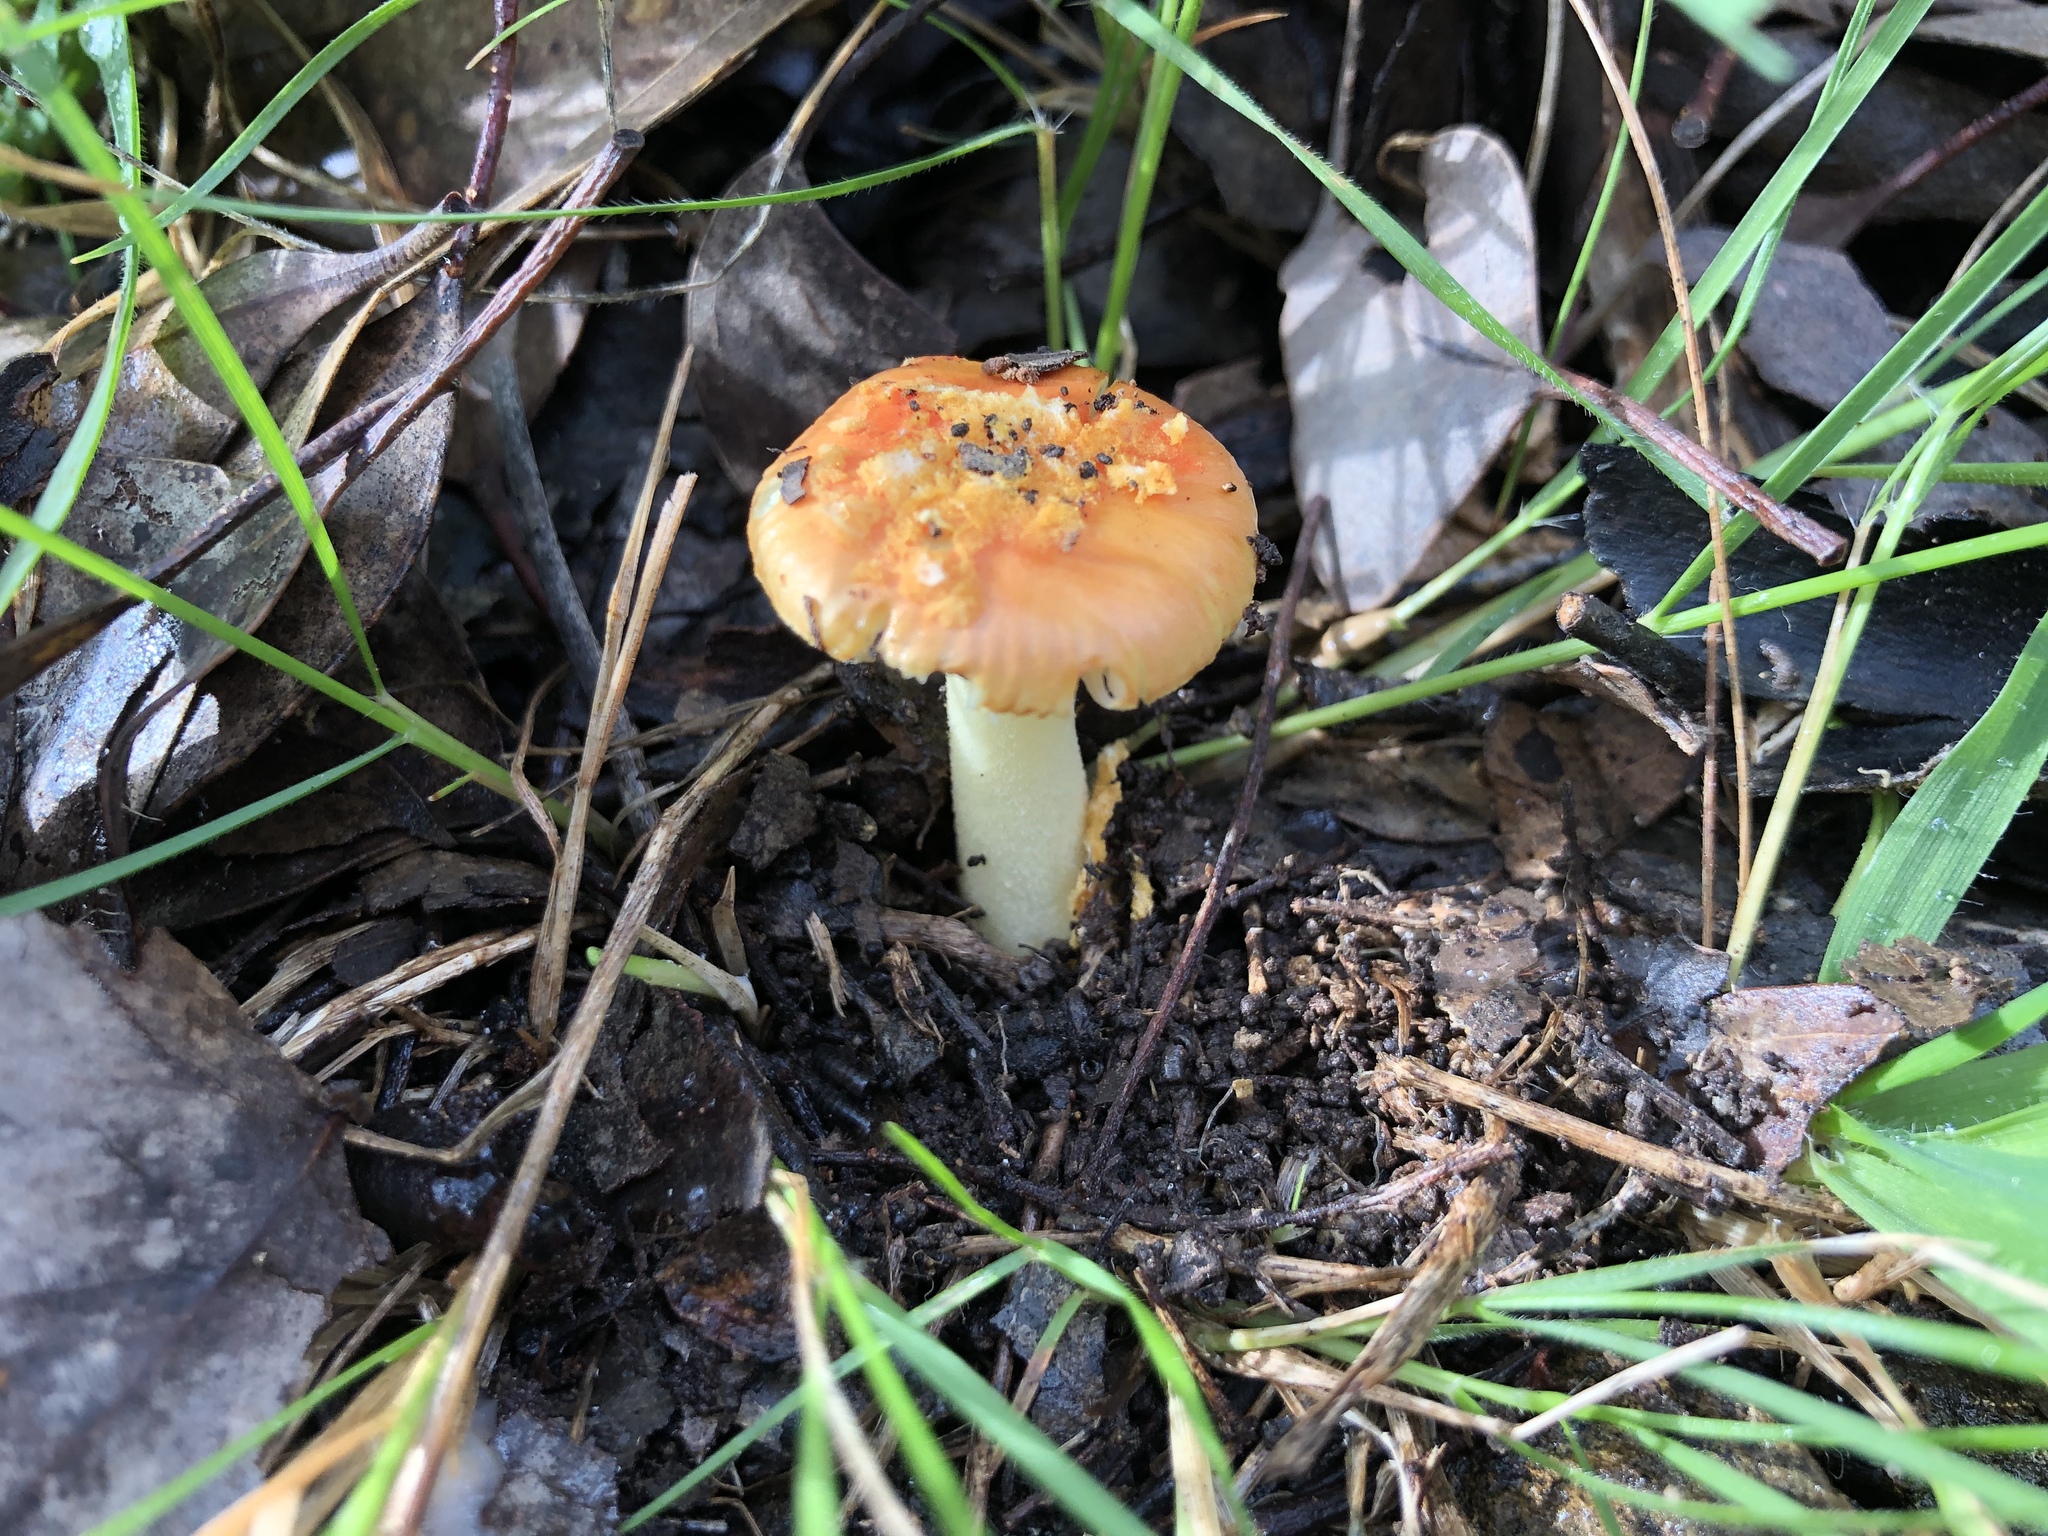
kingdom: Fungi
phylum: Basidiomycota
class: Agaricomycetes
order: Agaricales
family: Amanitaceae
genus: Amanita
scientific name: Amanita xanthocephala
